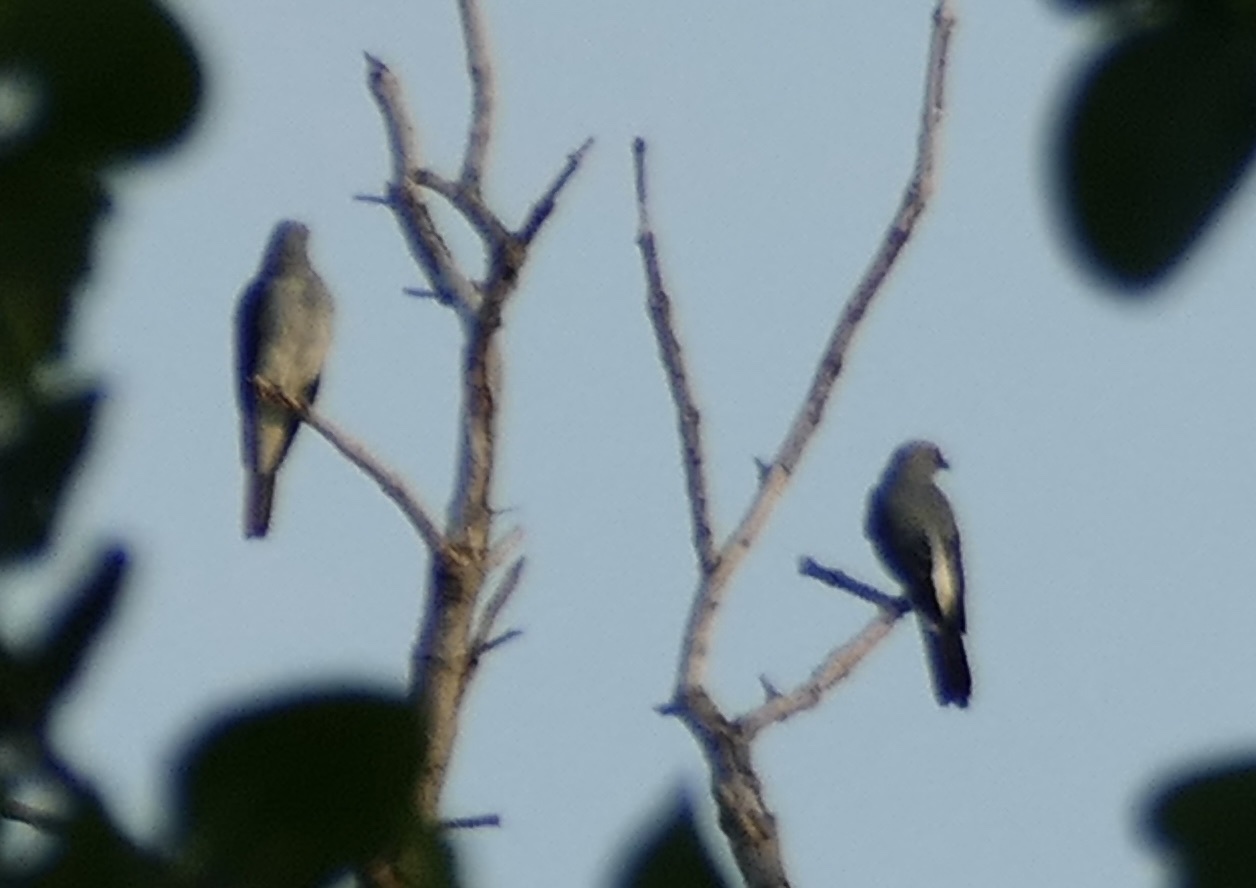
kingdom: Animalia
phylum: Chordata
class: Aves
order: Passeriformes
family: Campephagidae
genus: Coracina
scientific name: Coracina leucopygia
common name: White-rumped cuckooshrike
